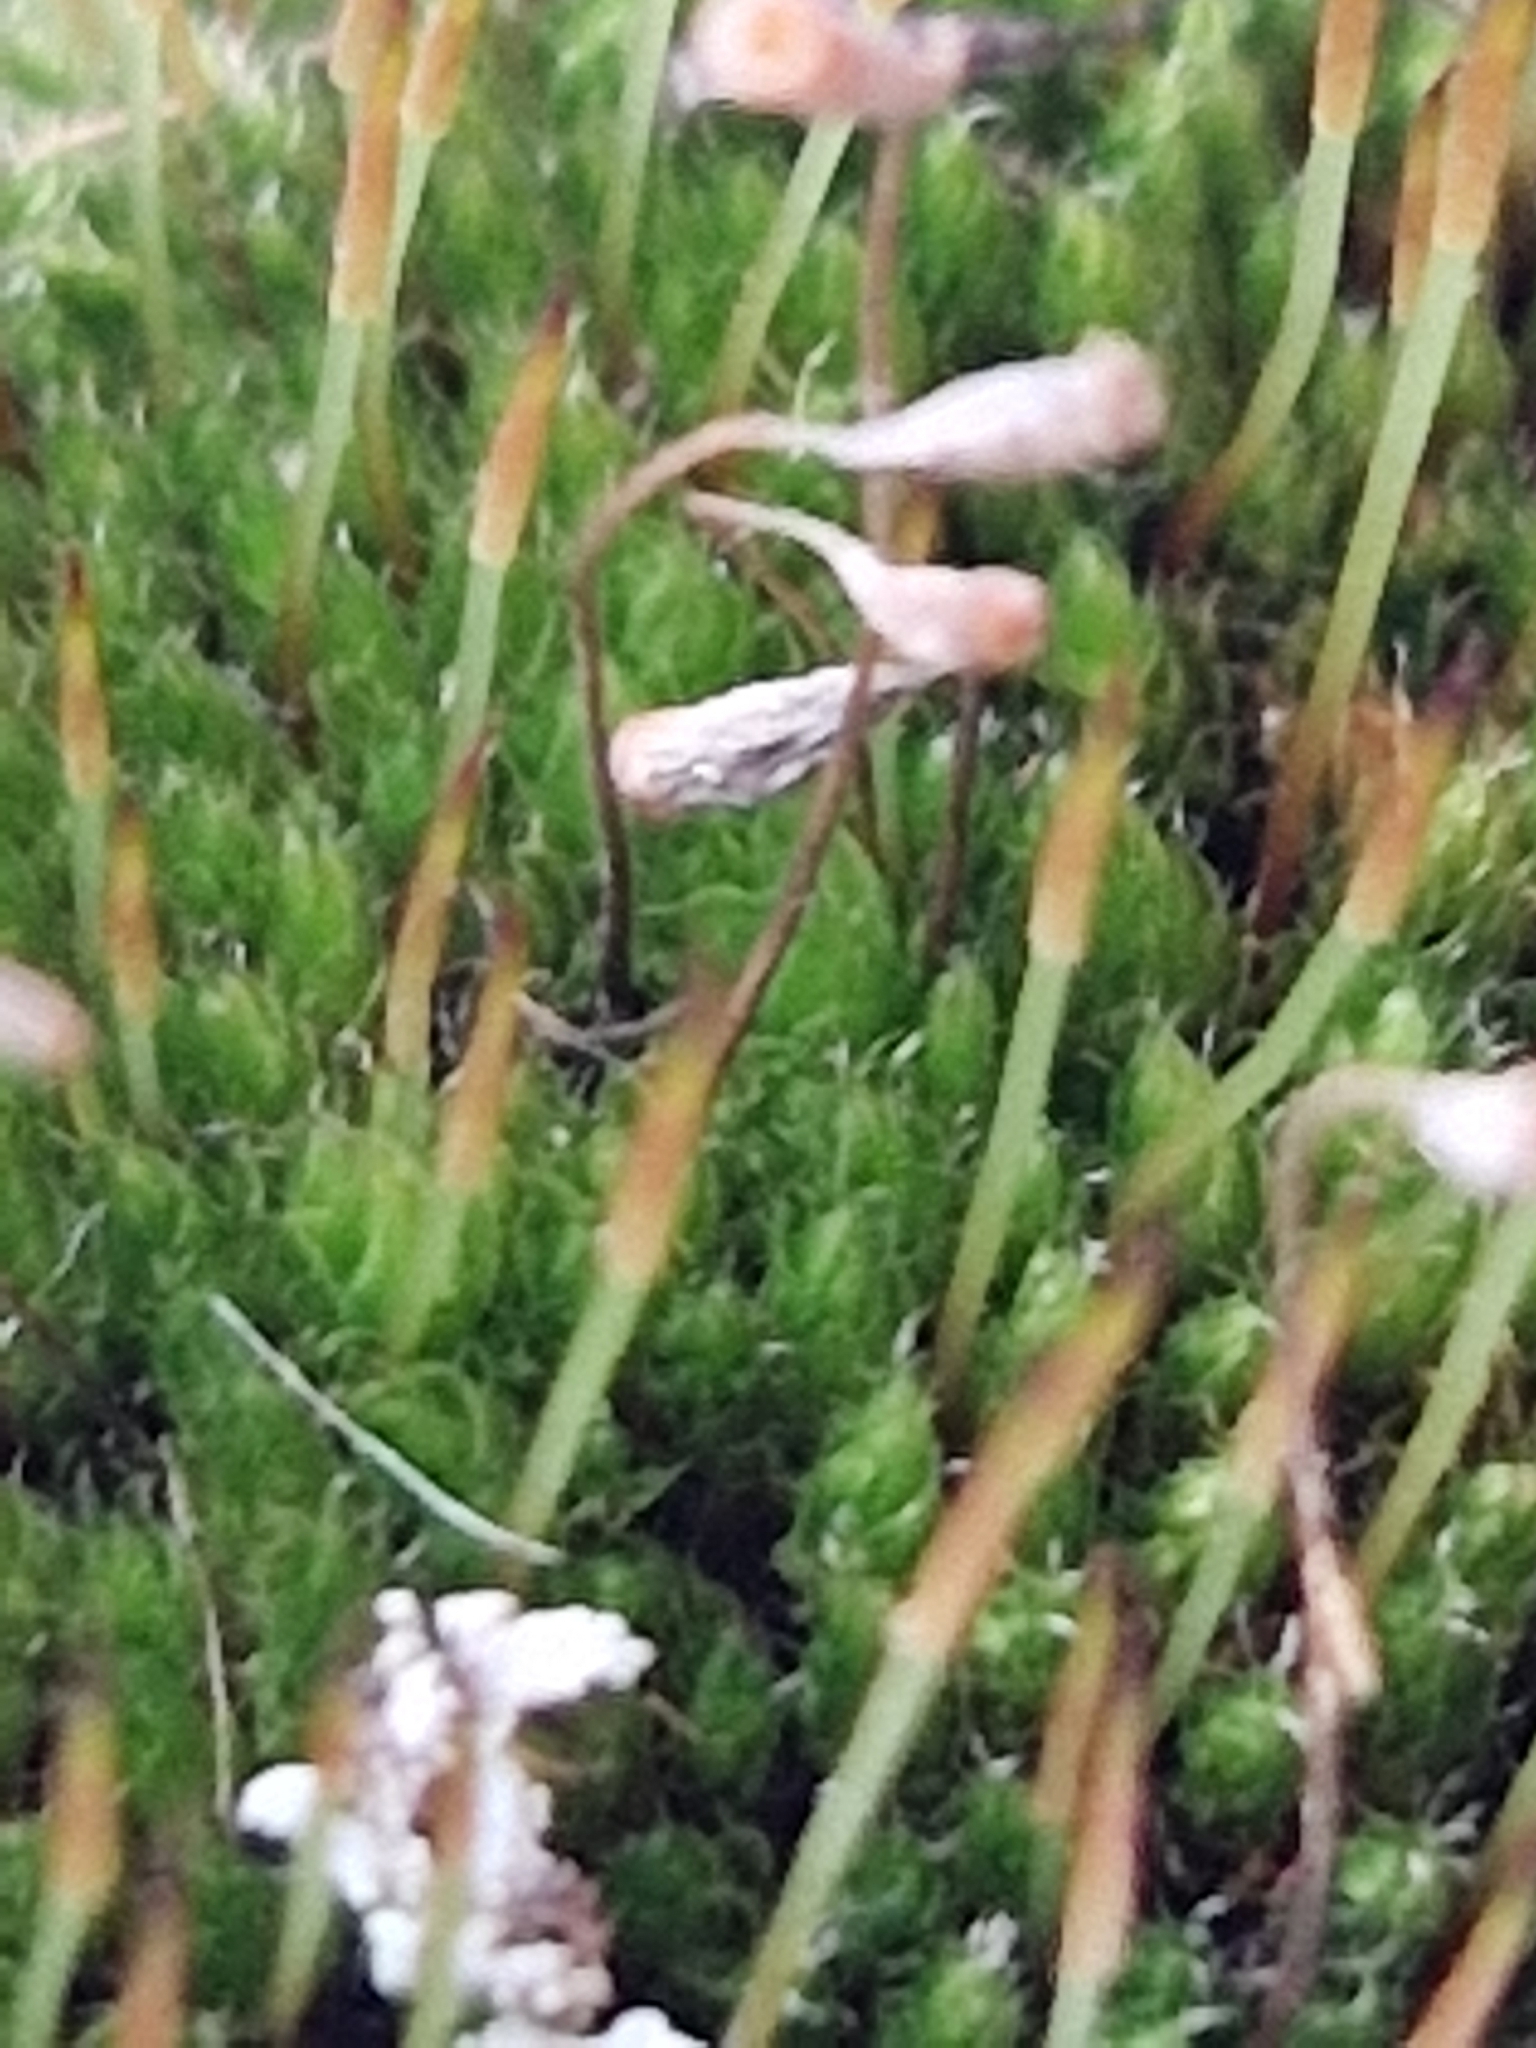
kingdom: Plantae
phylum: Bryophyta
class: Bryopsida
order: Bryales
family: Bryaceae
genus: Rosulabryum
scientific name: Rosulabryum capillare
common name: Capillary thread-moss
